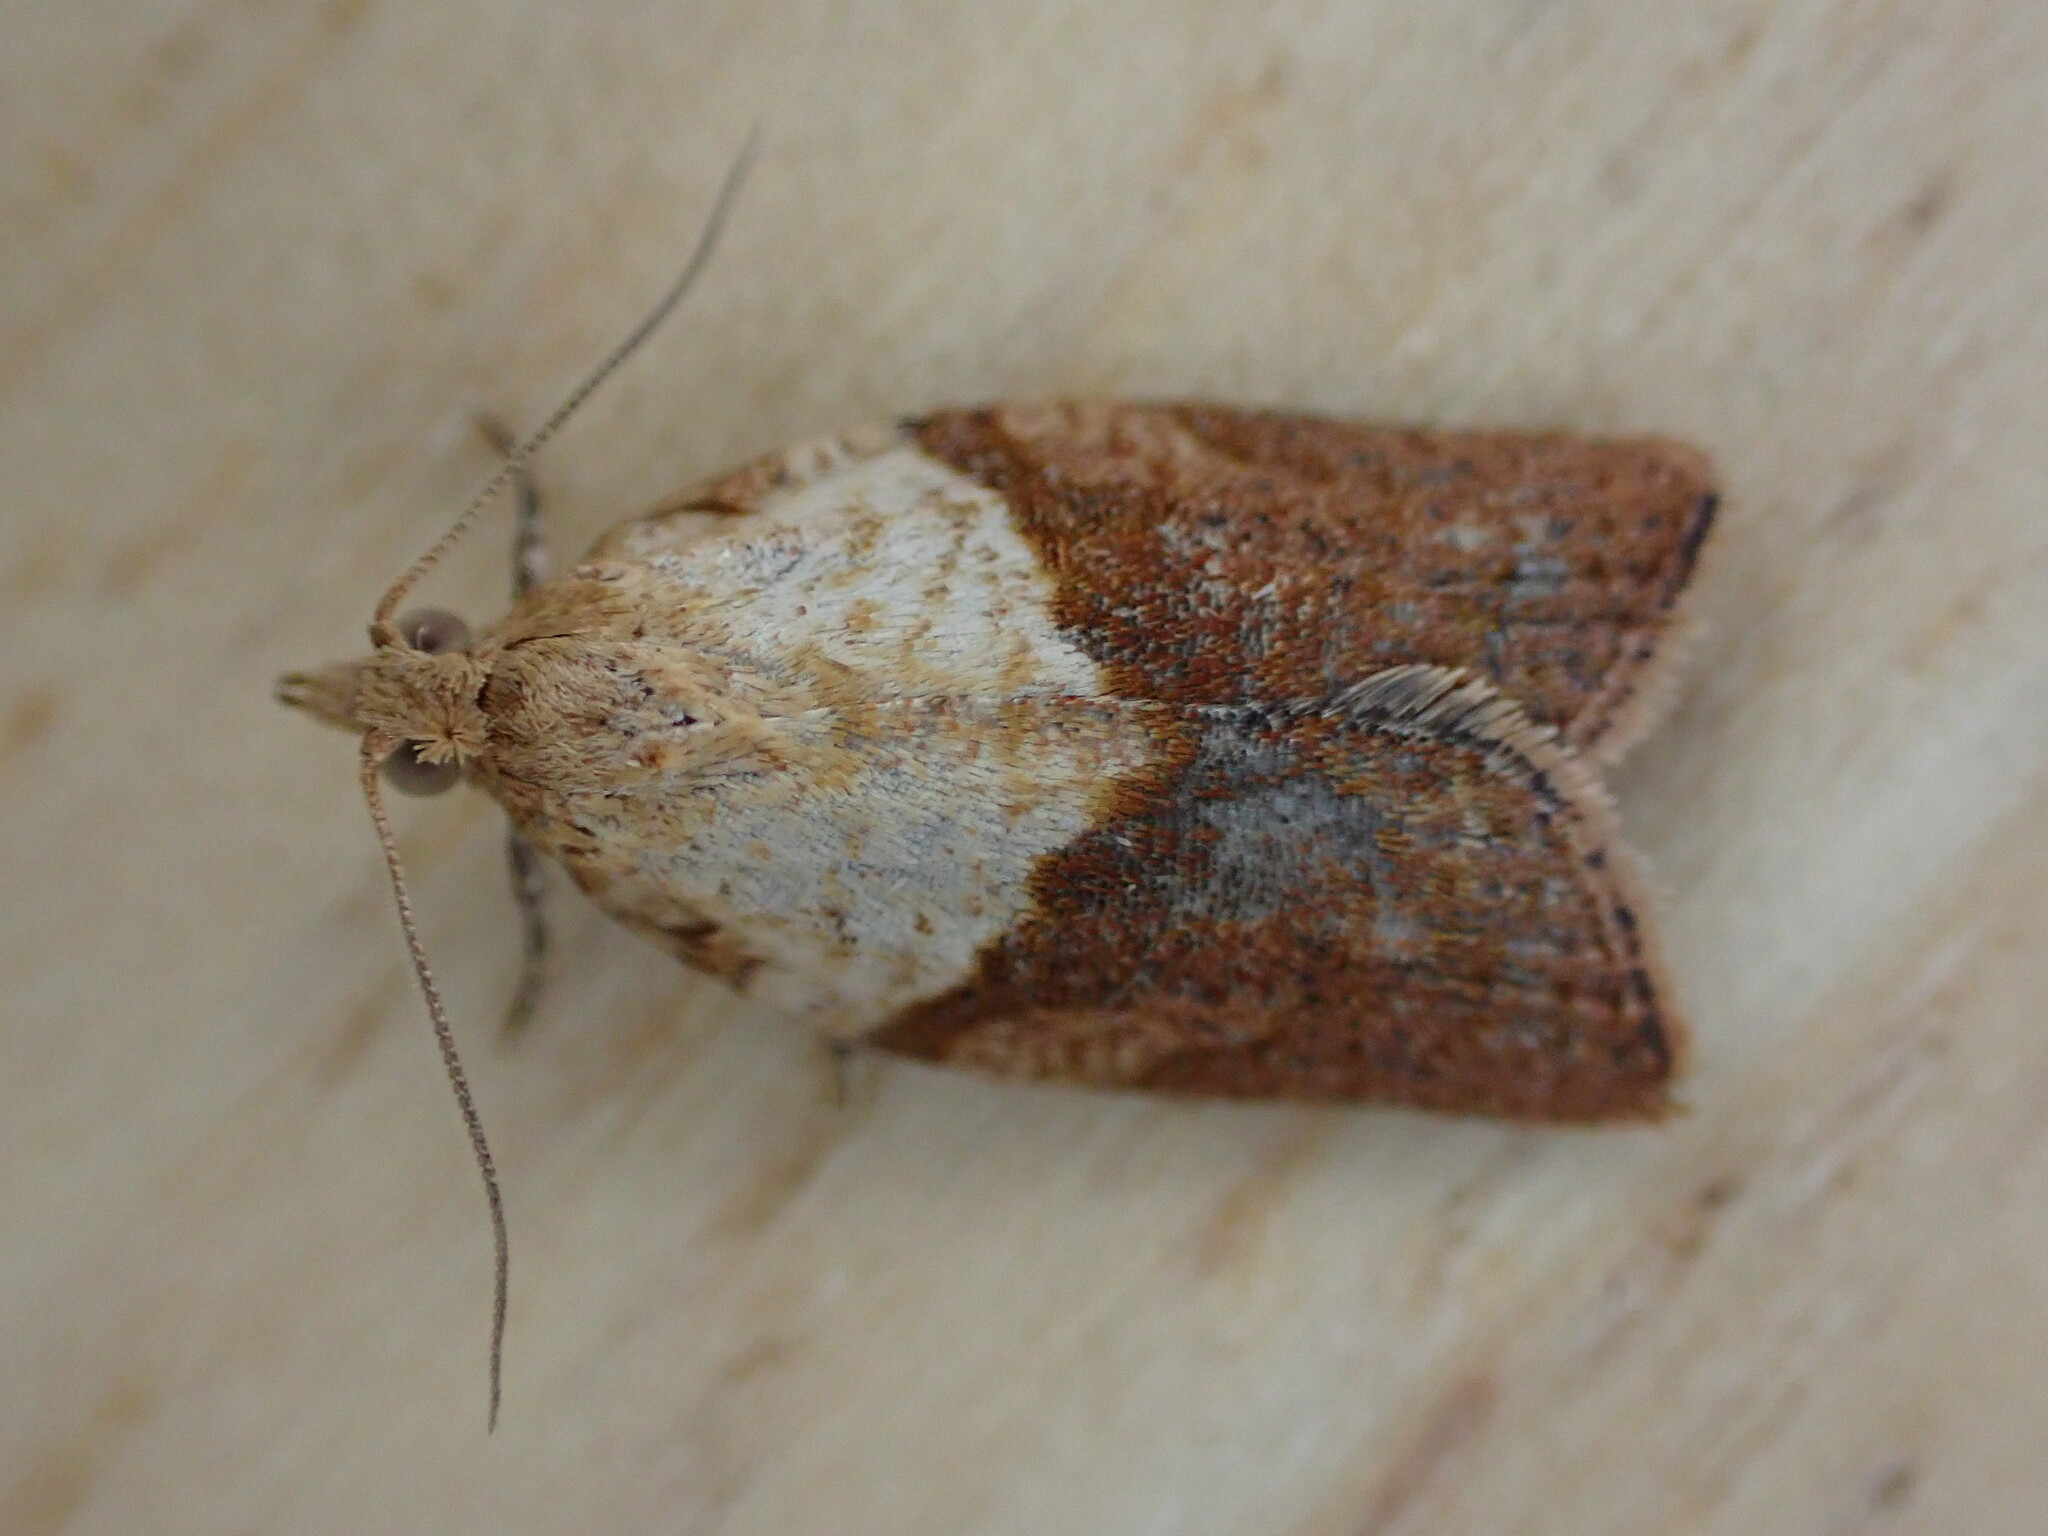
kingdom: Animalia
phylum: Arthropoda
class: Insecta
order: Lepidoptera
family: Tortricidae
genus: Epiphyas
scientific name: Epiphyas postvittana
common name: Light brown apple moth
